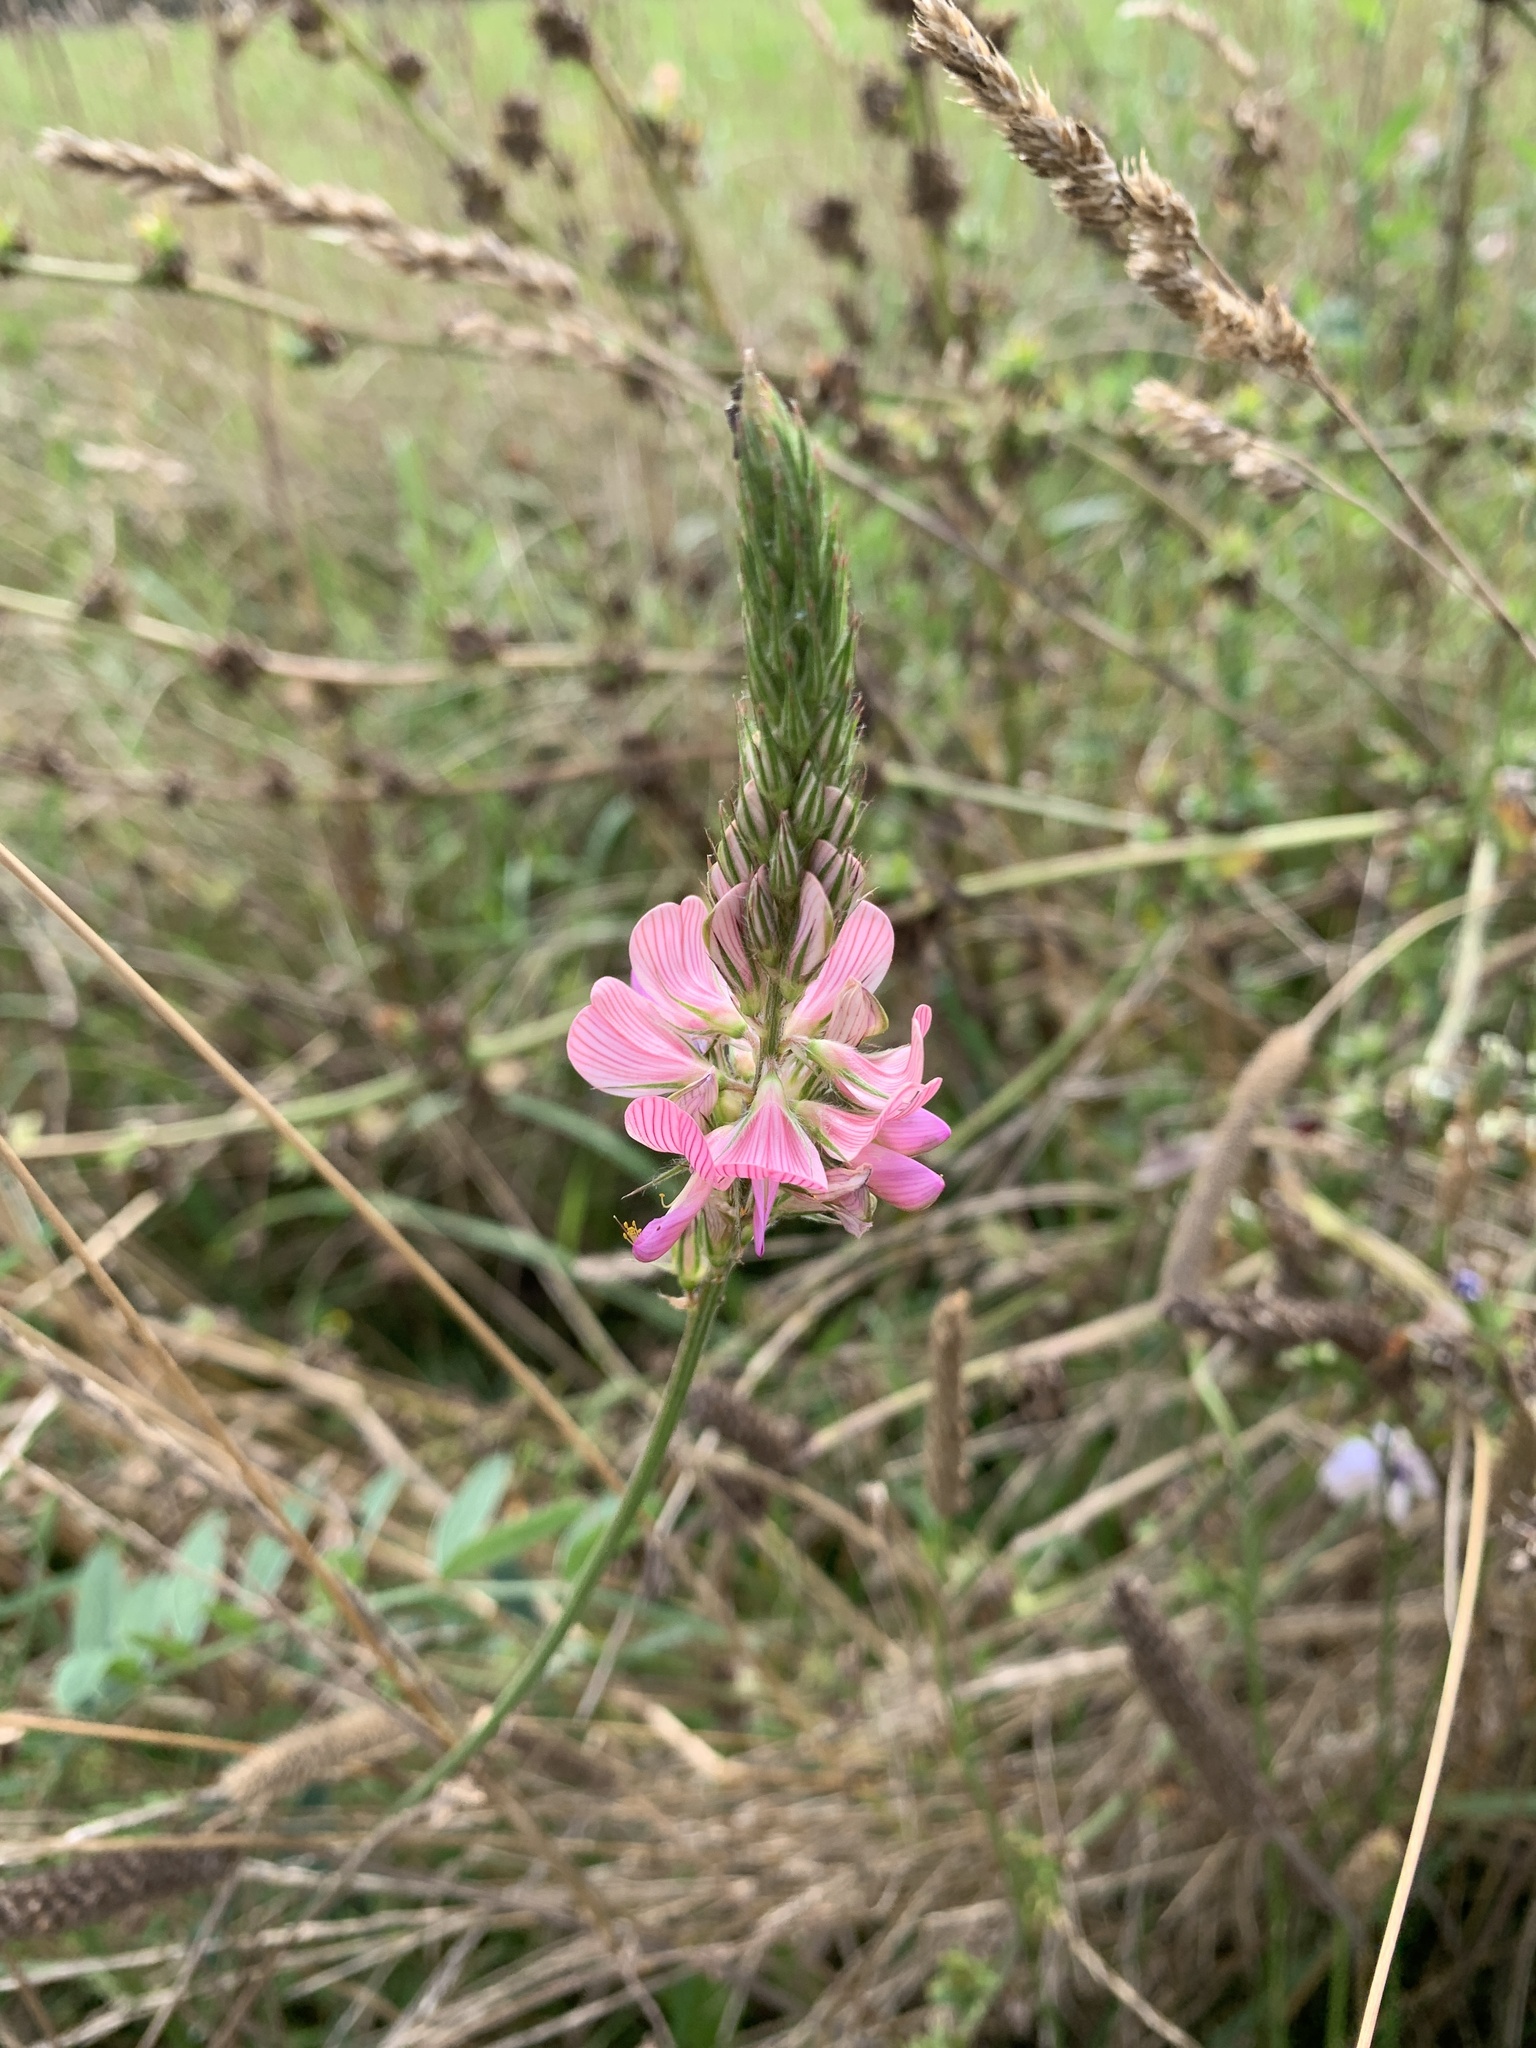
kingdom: Plantae
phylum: Tracheophyta
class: Magnoliopsida
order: Fabales
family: Fabaceae
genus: Onobrychis
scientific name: Onobrychis viciifolia
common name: Sainfoin
